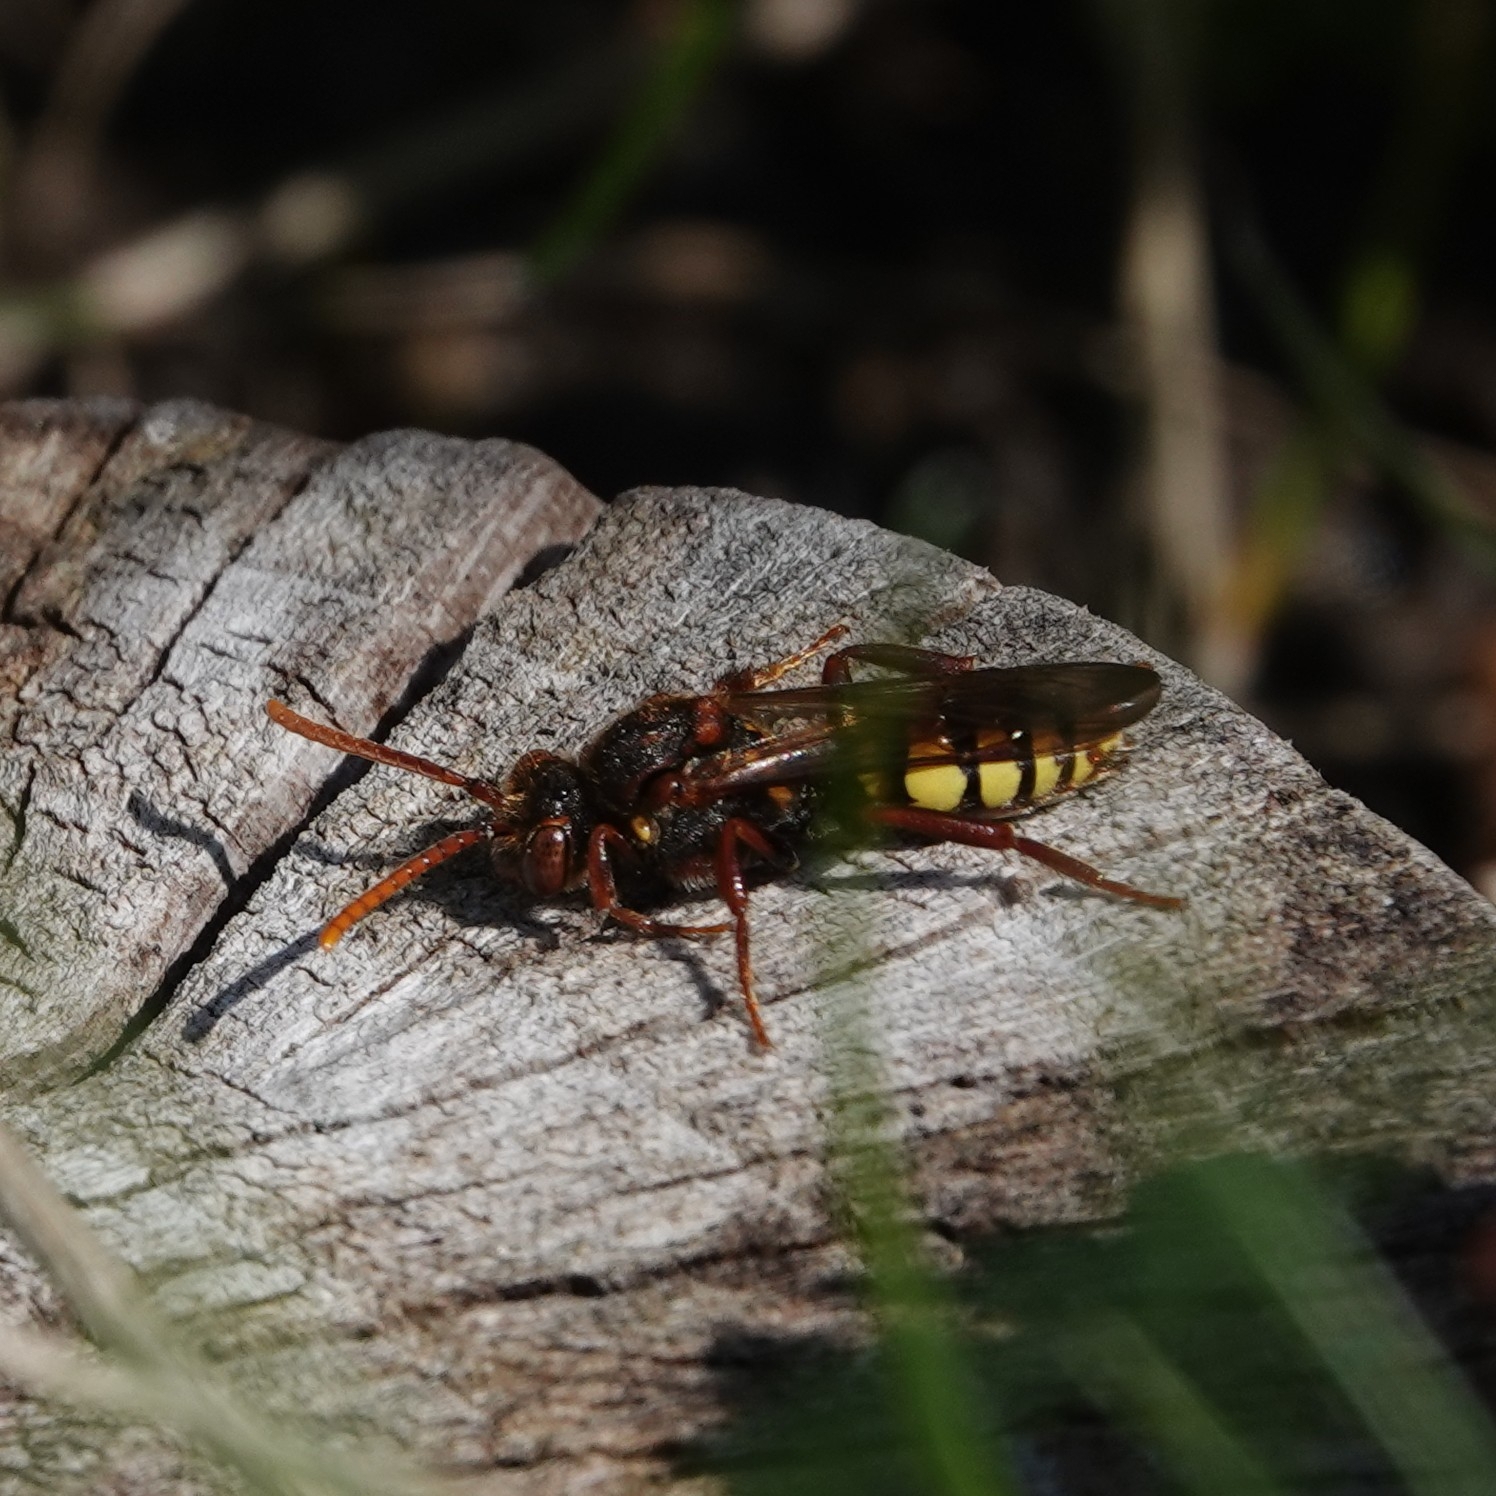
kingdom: Animalia
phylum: Arthropoda
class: Insecta
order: Hymenoptera
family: Apidae
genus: Nomada
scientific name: Nomada signata
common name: Broad-banded nomad bee
